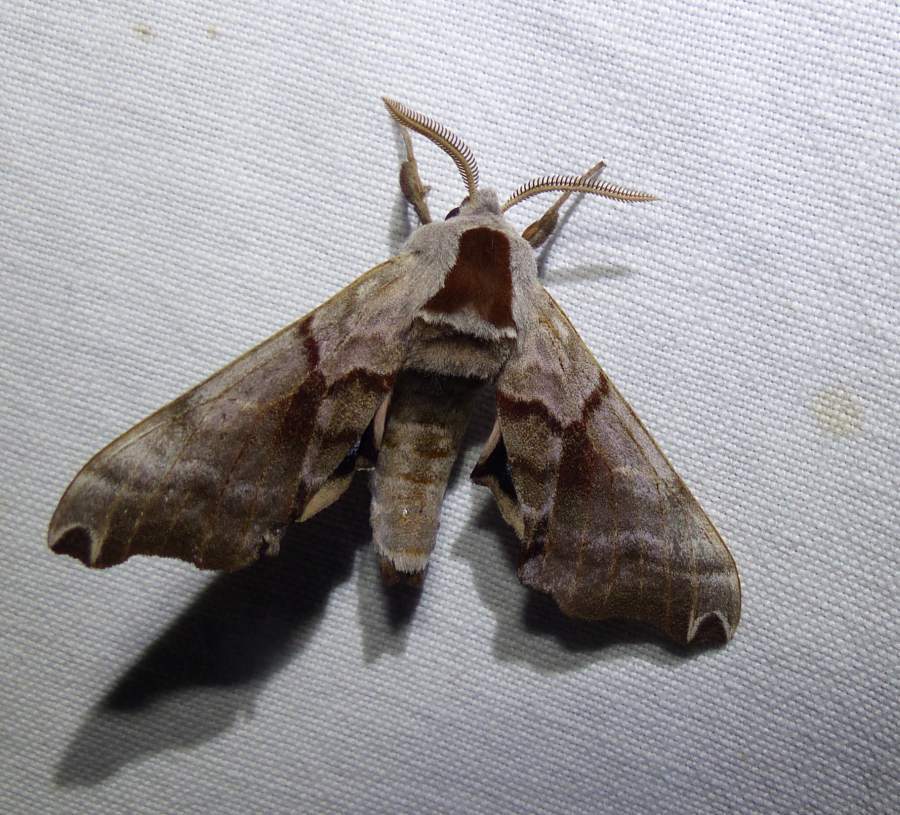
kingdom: Animalia
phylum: Arthropoda
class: Insecta
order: Lepidoptera
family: Sphingidae
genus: Smerinthus
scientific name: Smerinthus jamaicensis
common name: Twin spotted sphinx
